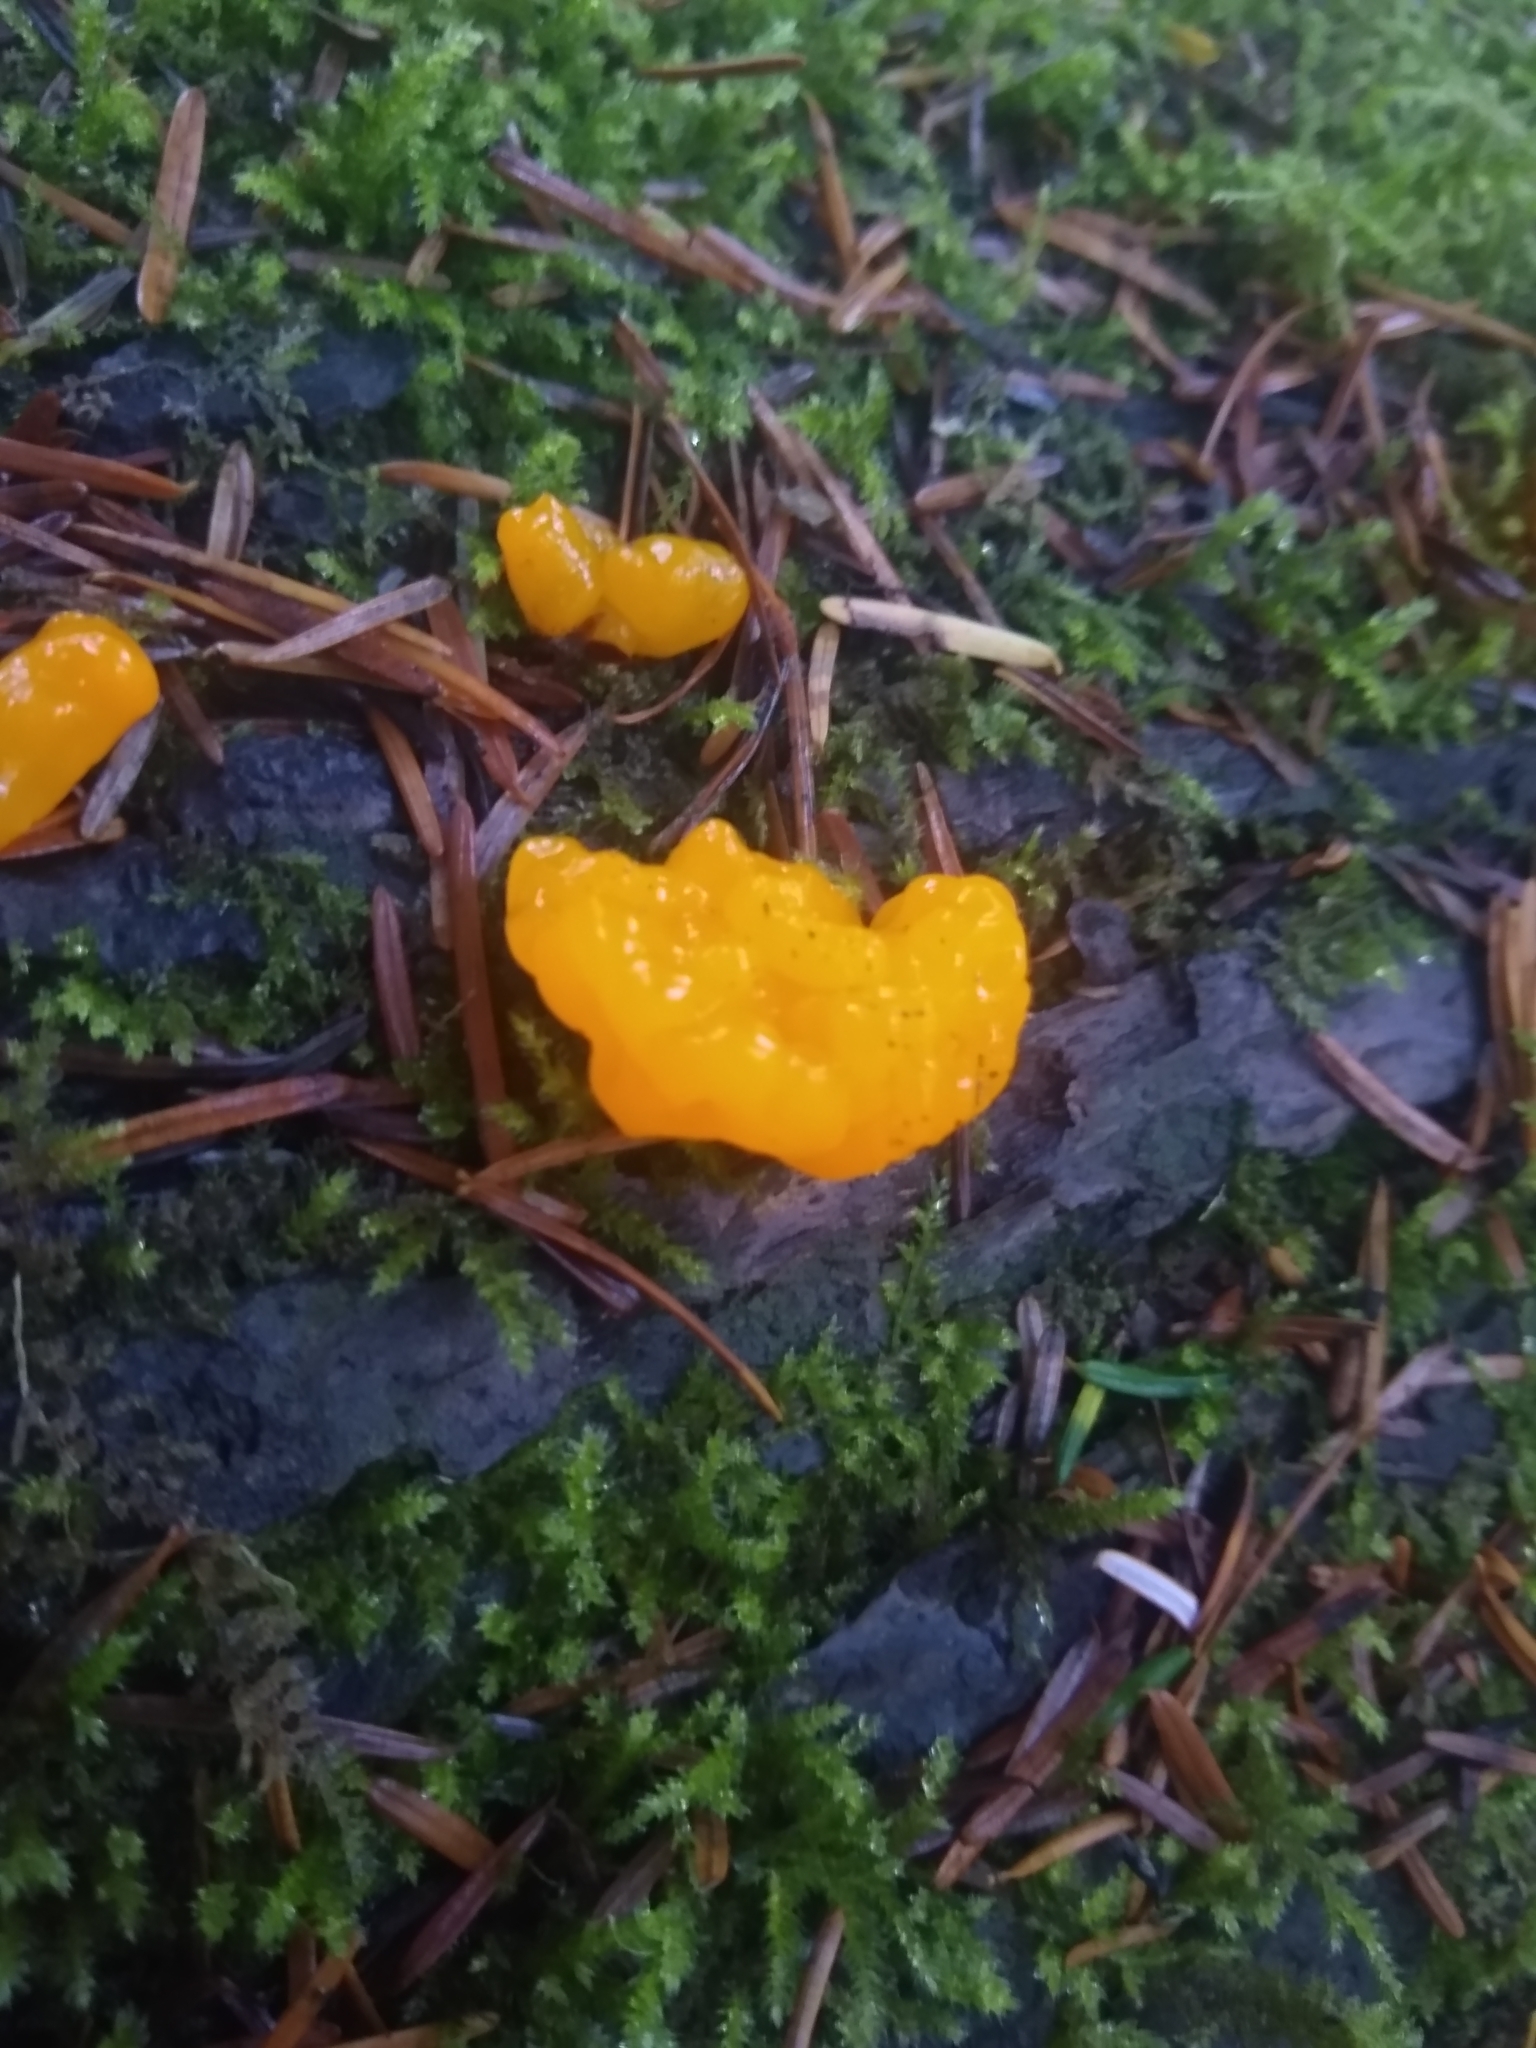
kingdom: Fungi
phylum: Basidiomycota
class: Tremellomycetes
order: Tremellales
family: Tremellaceae
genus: Tremella
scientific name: Tremella mesenterica
